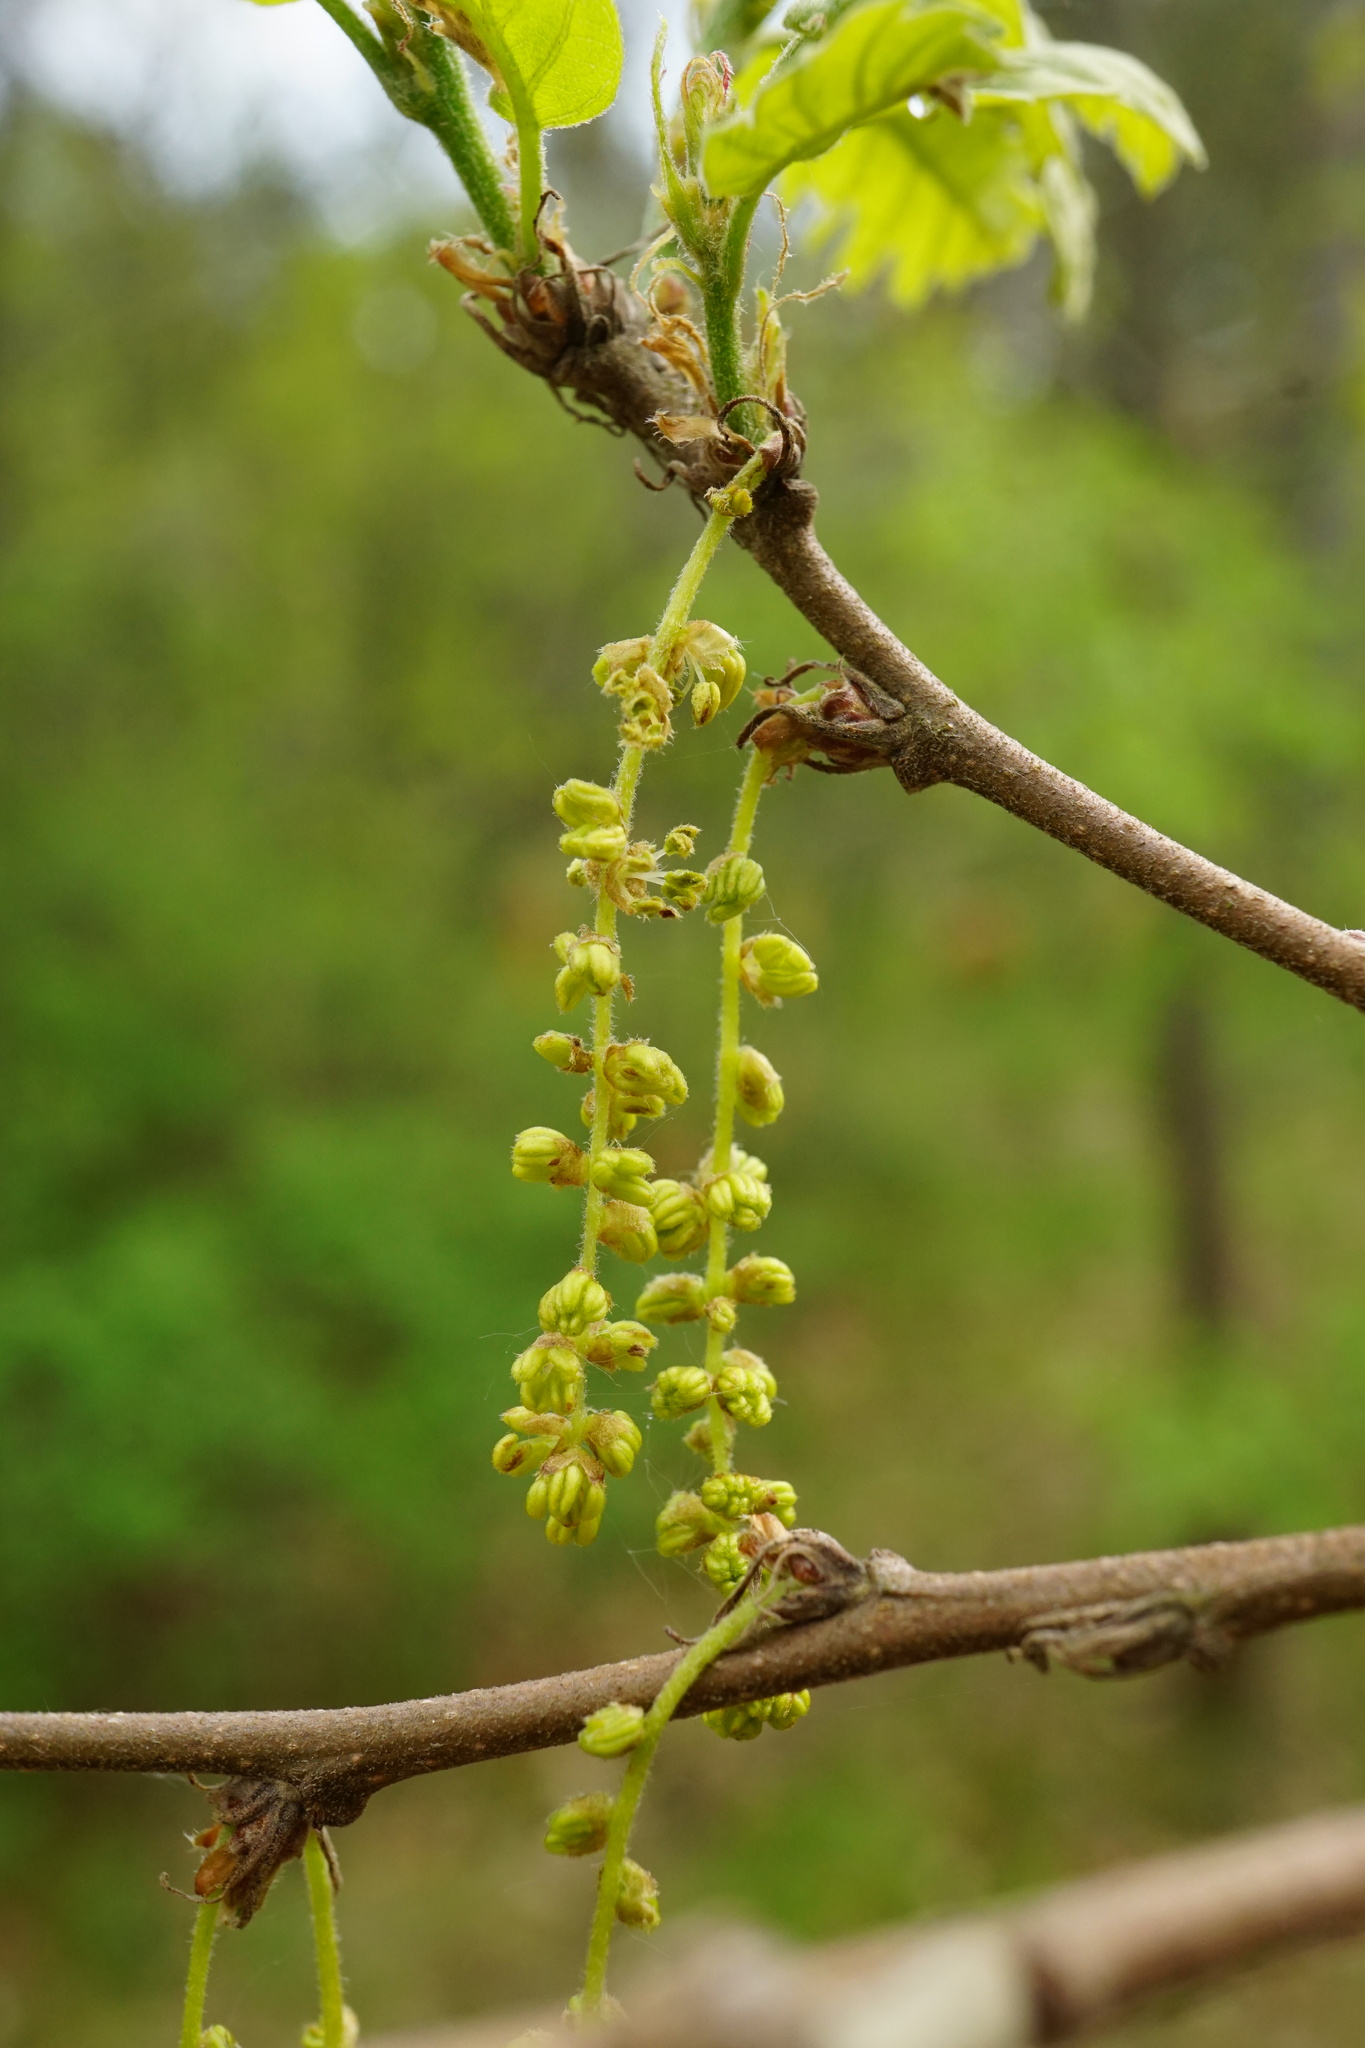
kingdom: Plantae
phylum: Tracheophyta
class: Magnoliopsida
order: Fagales
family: Fagaceae
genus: Quercus
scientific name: Quercus cerris
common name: Turkey oak
